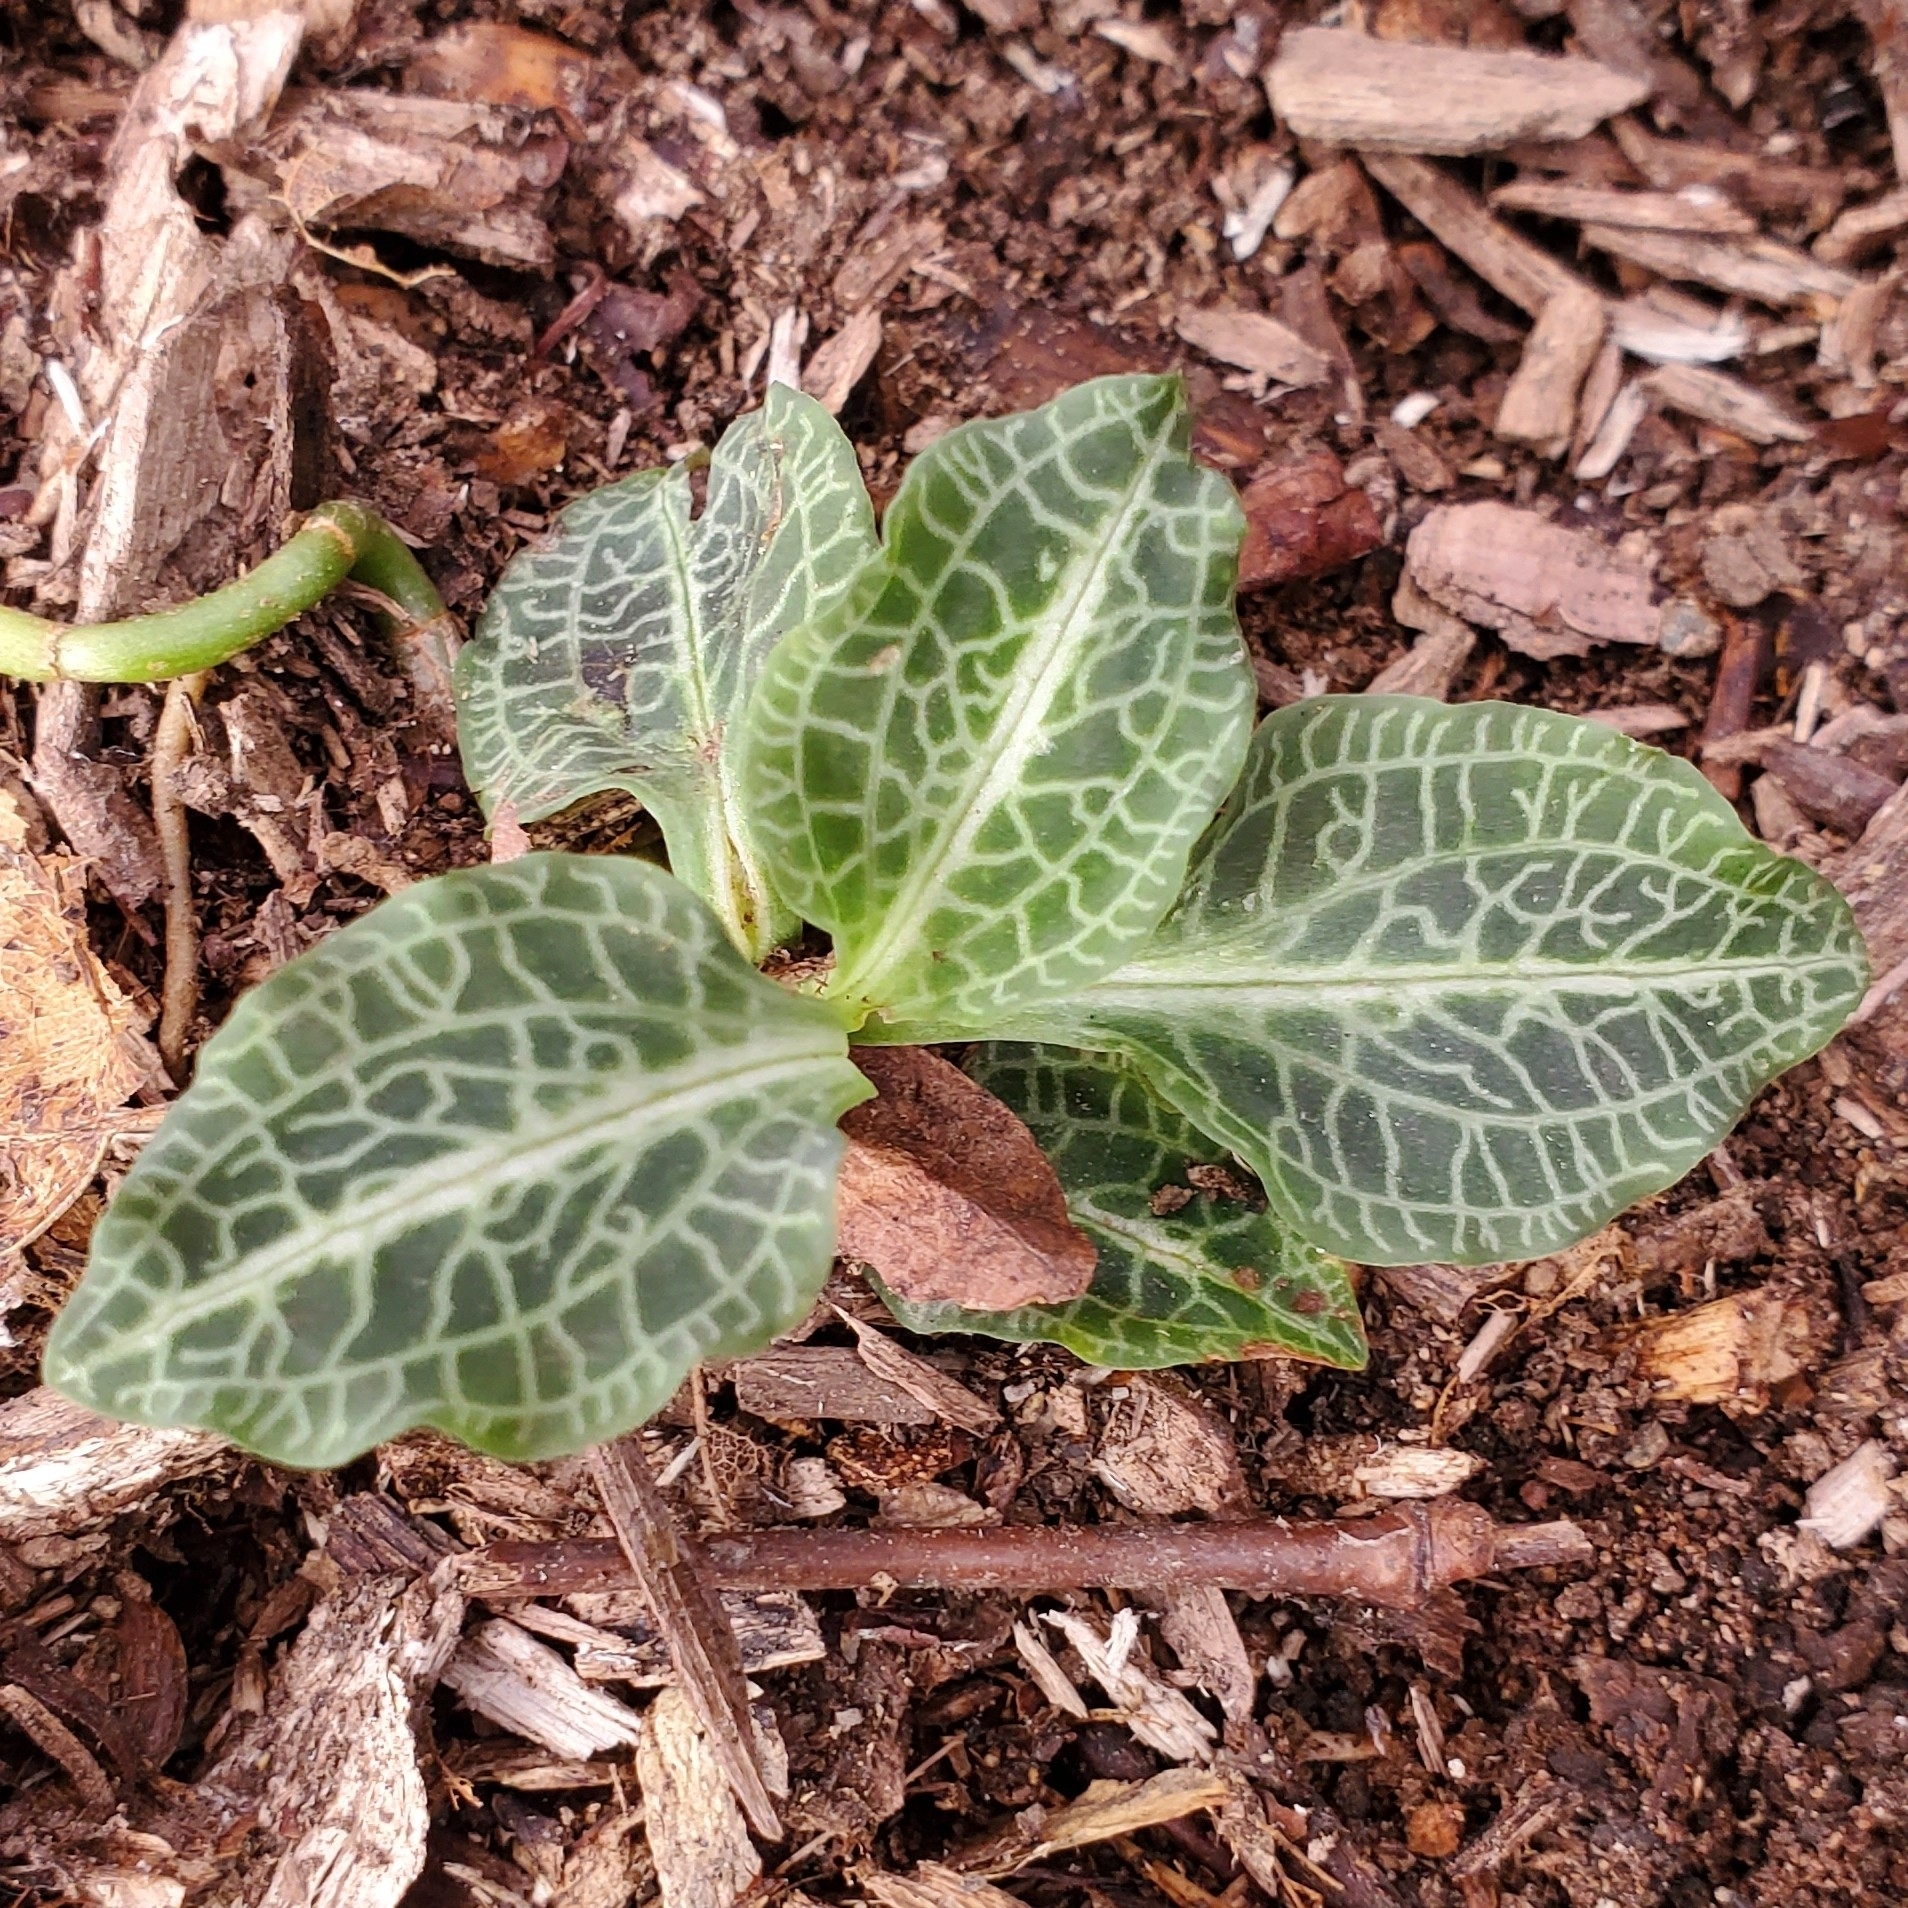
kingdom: Plantae
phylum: Tracheophyta
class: Liliopsida
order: Asparagales
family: Orchidaceae
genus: Goodyera
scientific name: Goodyera pubescens
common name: Downy rattlesnake-plantain
